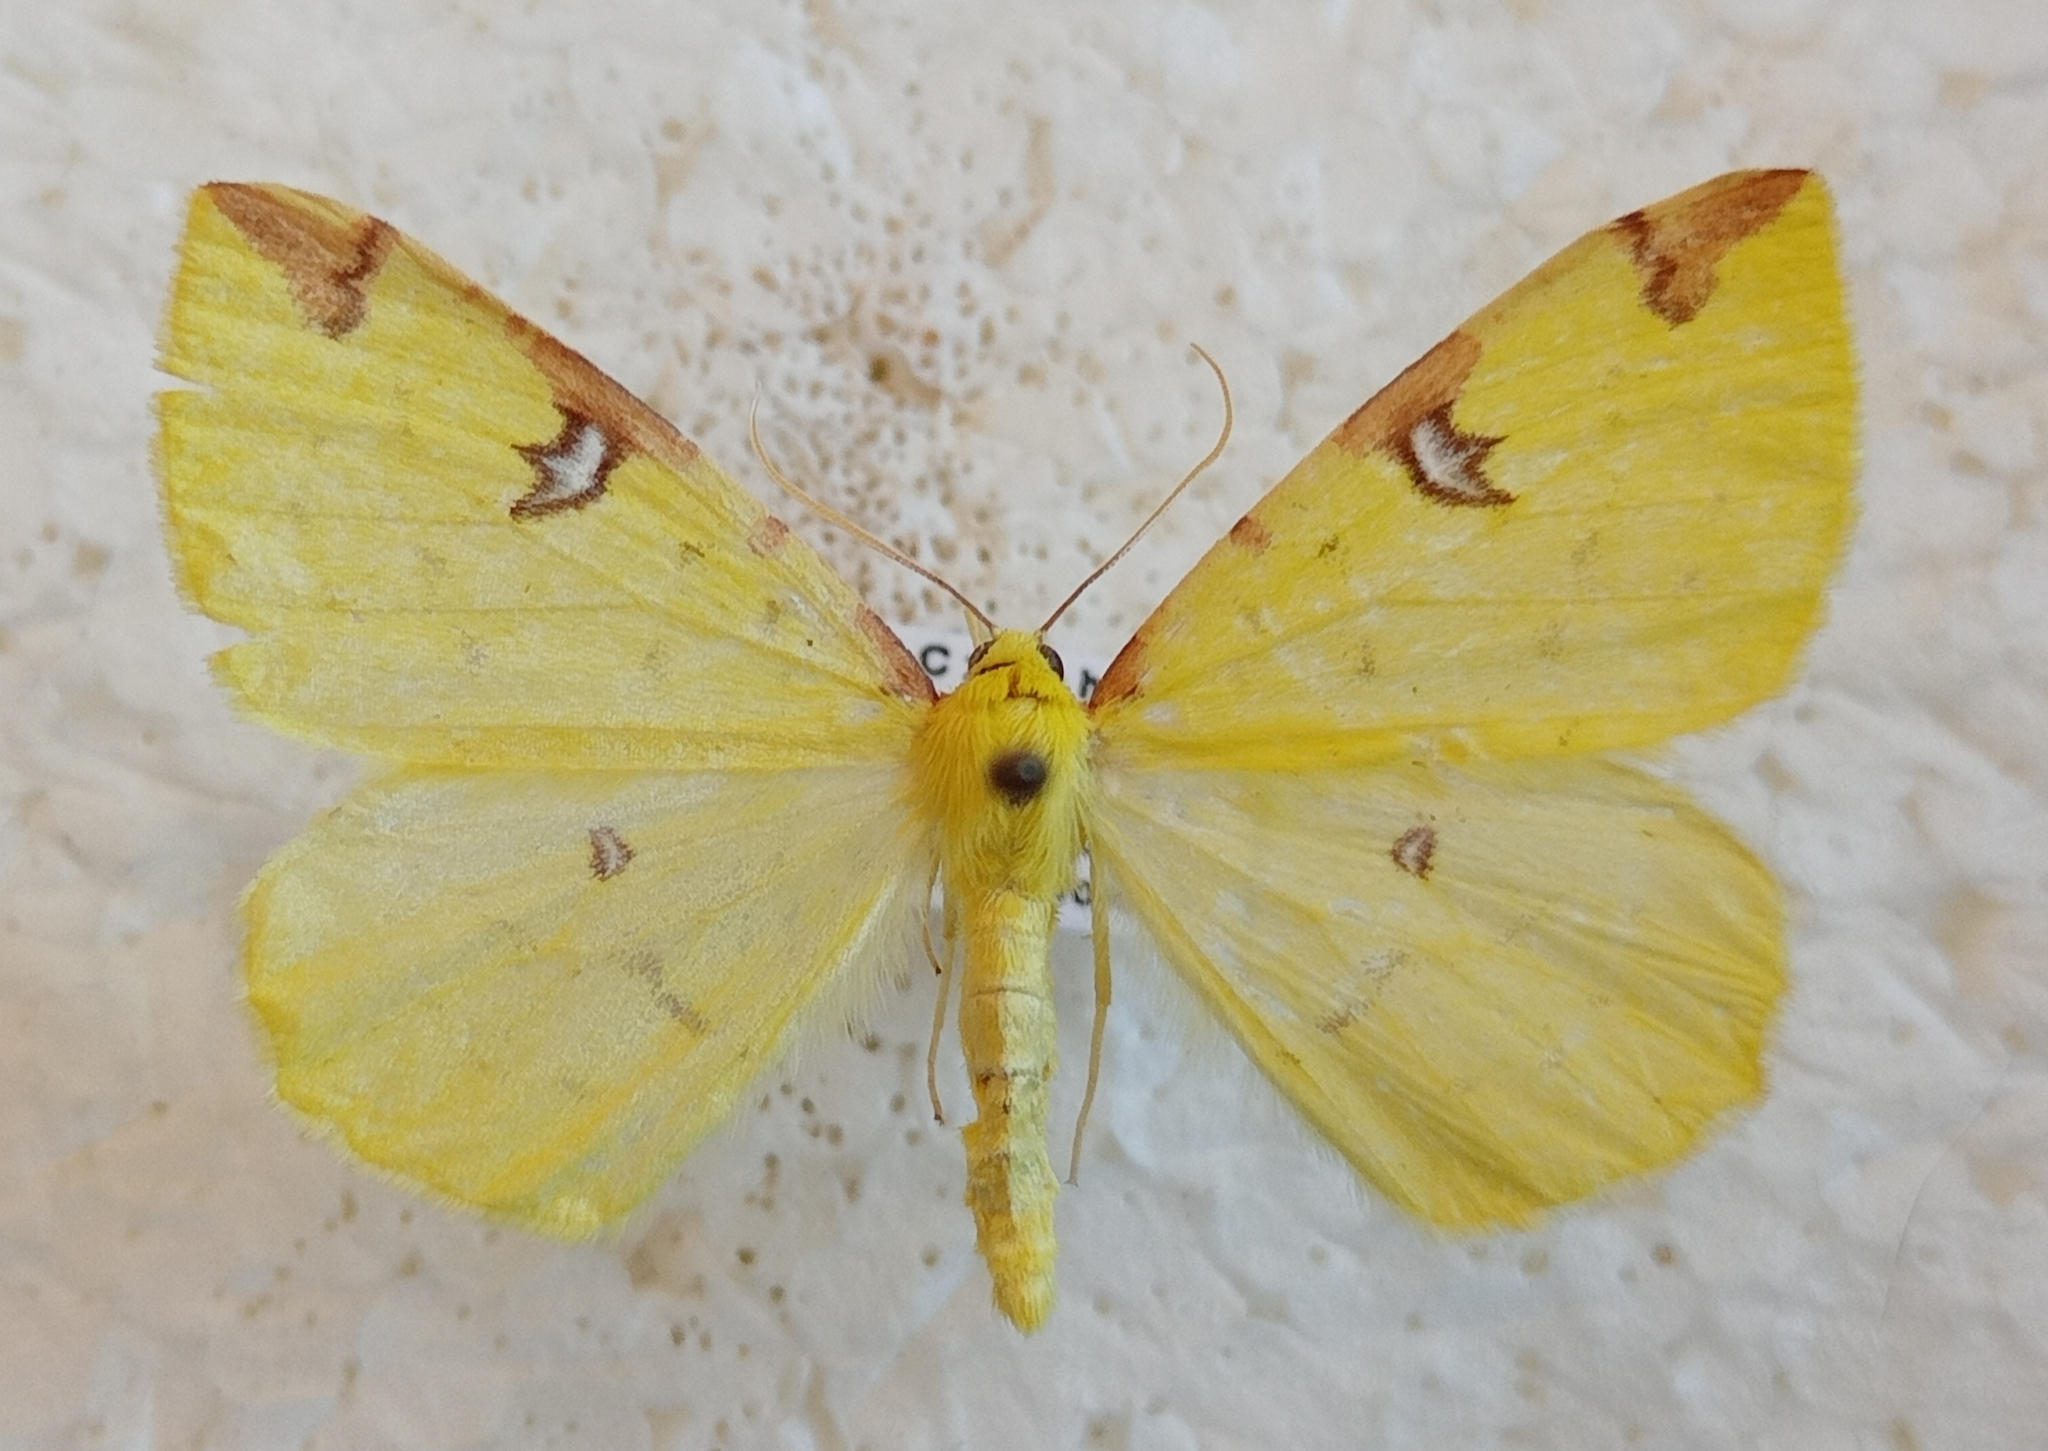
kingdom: Animalia
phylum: Arthropoda
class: Insecta
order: Lepidoptera
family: Geometridae
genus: Opisthograptis
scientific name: Opisthograptis luteolata
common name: Brimstone moth
